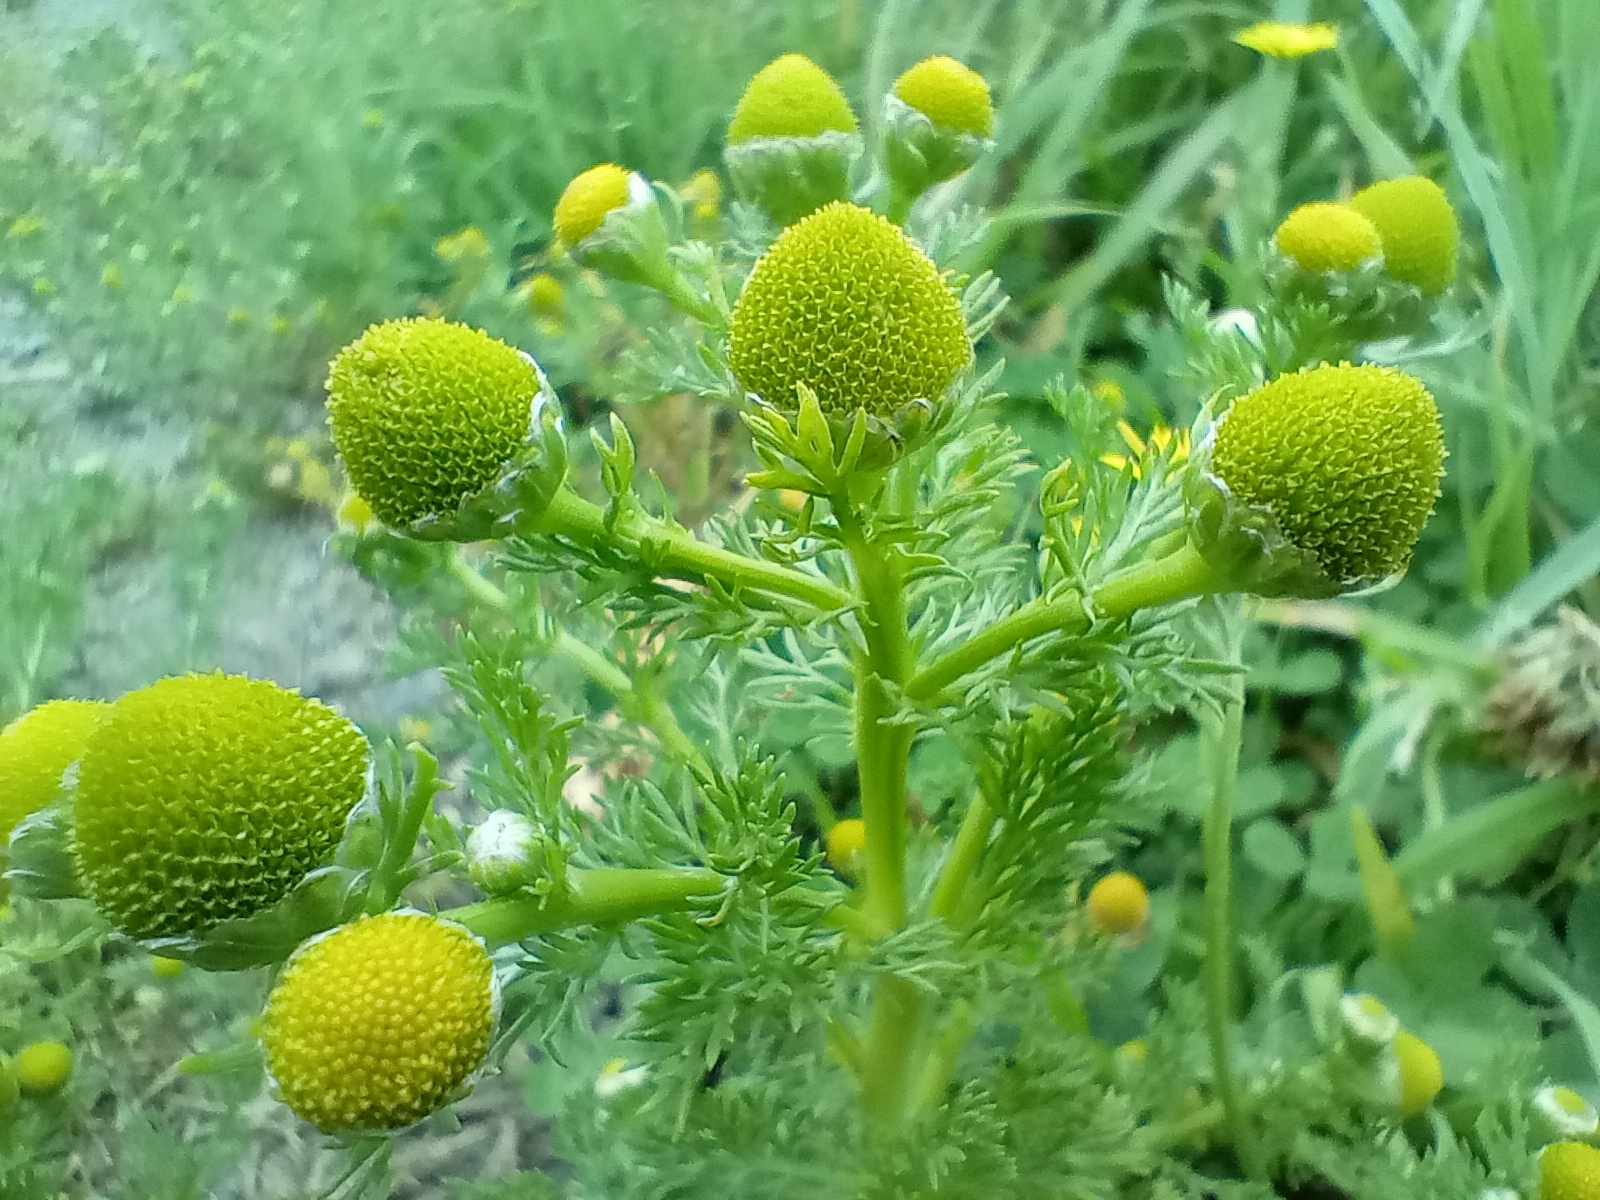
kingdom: Plantae
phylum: Tracheophyta
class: Magnoliopsida
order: Asterales
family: Asteraceae
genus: Matricaria
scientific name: Matricaria discoidea
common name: Disc mayweed
